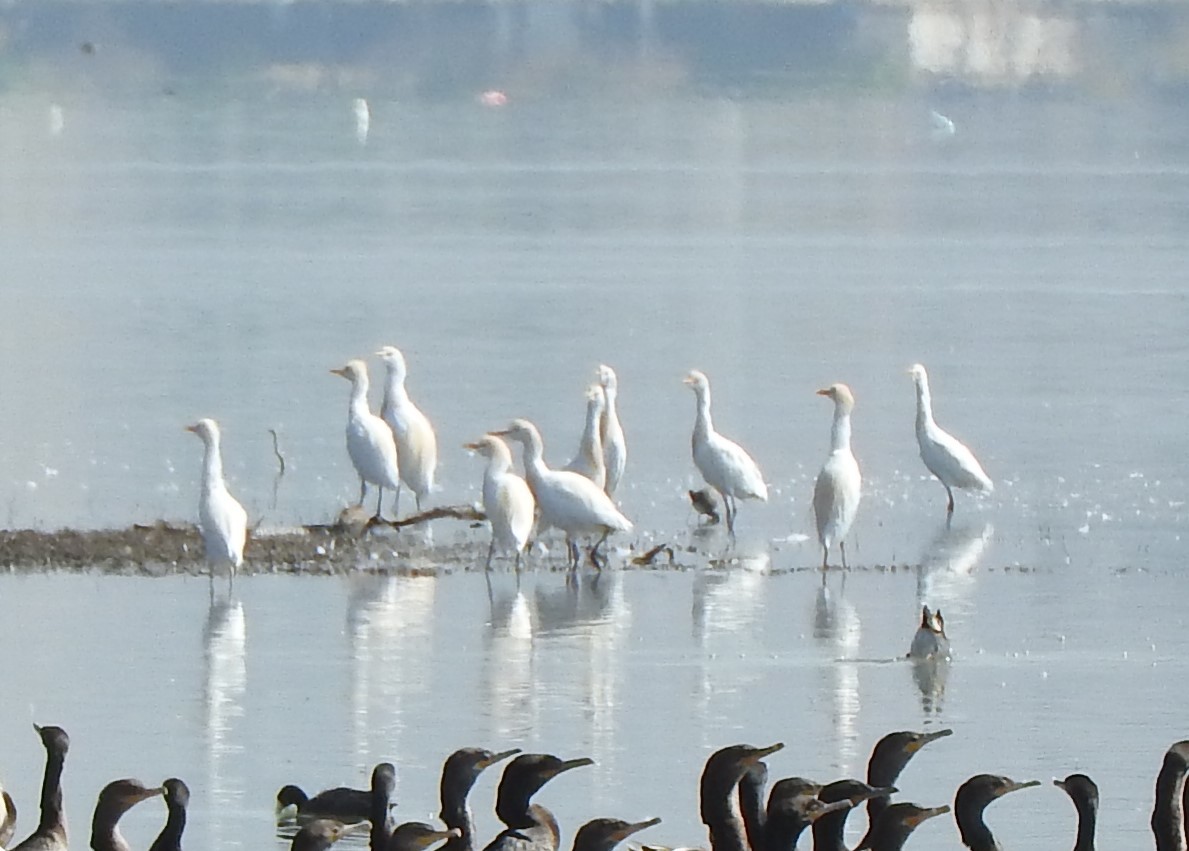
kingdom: Animalia
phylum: Chordata
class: Aves
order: Pelecaniformes
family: Ardeidae
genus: Bubulcus
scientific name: Bubulcus ibis
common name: Cattle egret
